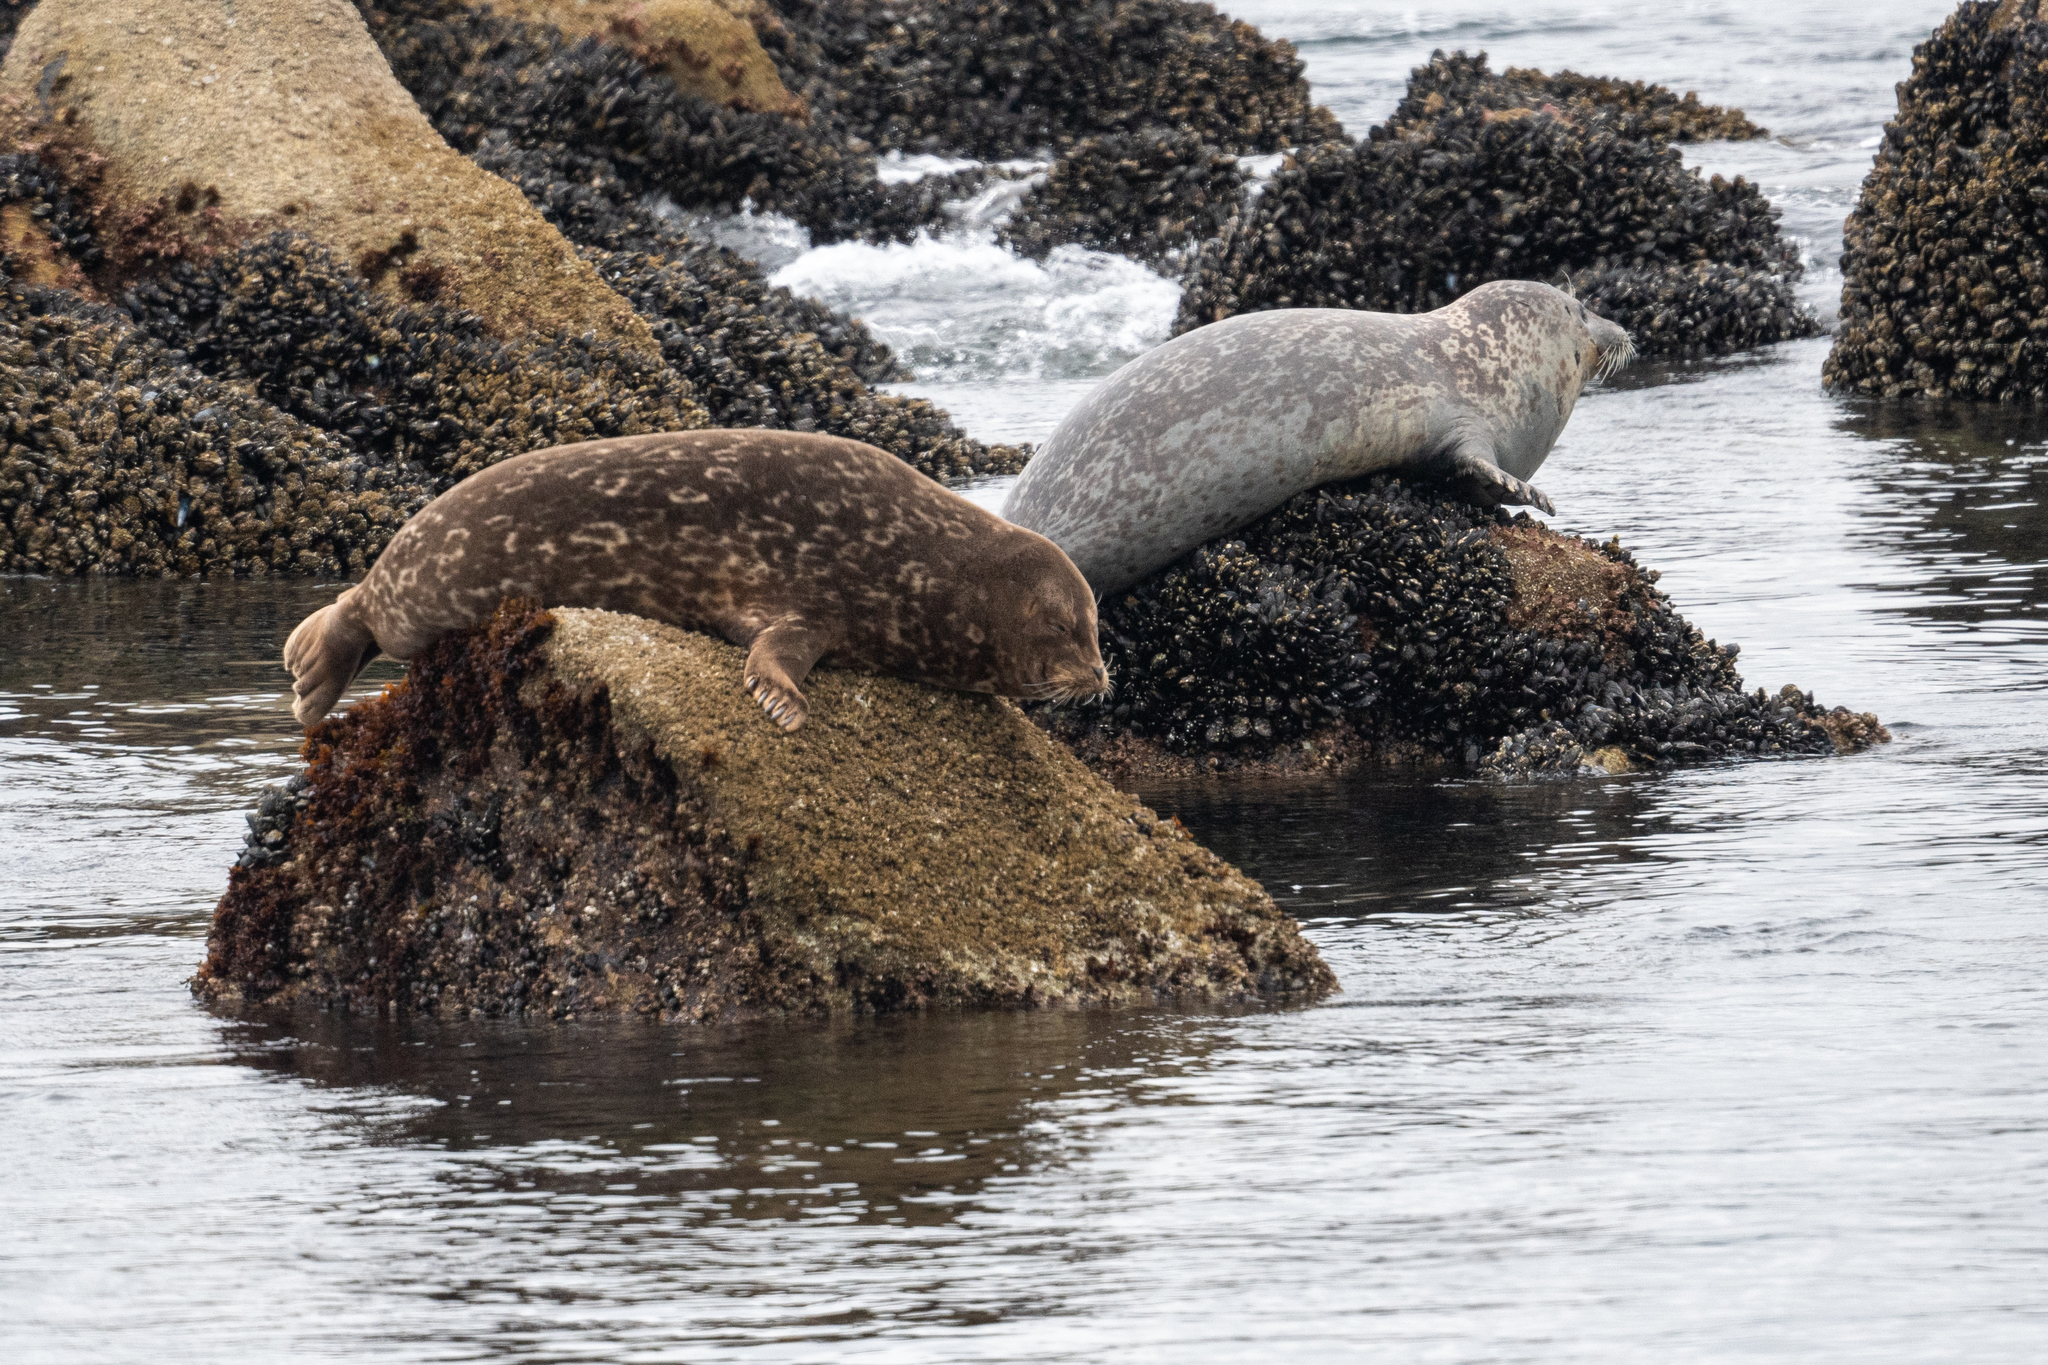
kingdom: Animalia
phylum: Chordata
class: Mammalia
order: Carnivora
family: Phocidae
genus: Phoca
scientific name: Phoca vitulina
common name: Harbor seal
